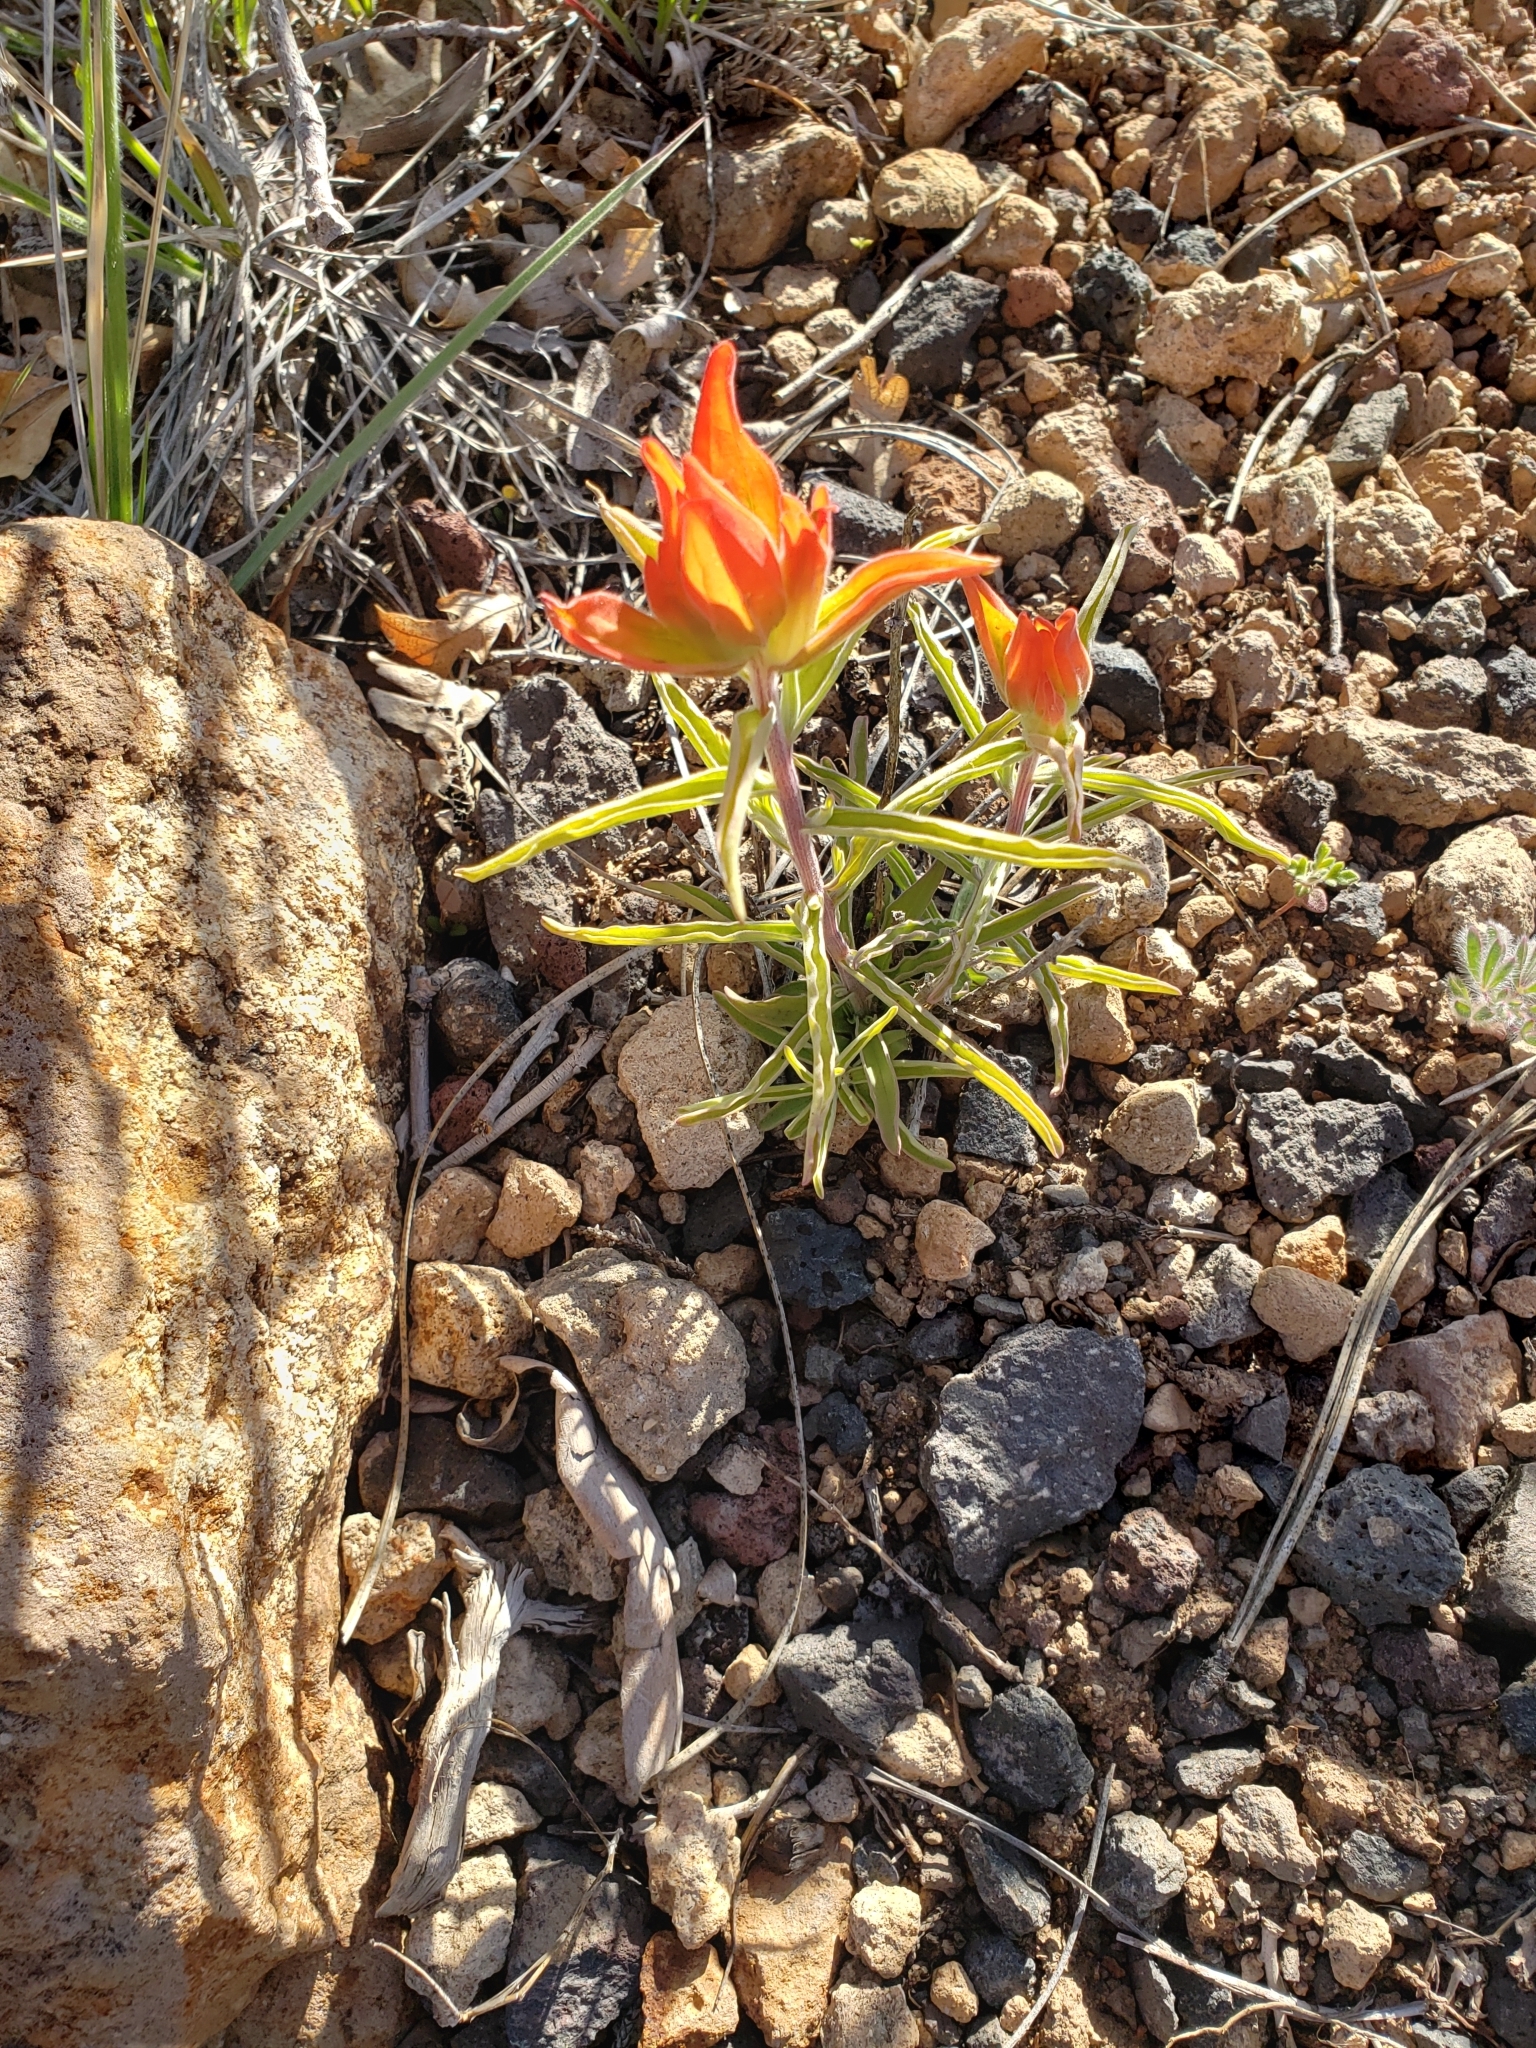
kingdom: Plantae
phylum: Tracheophyta
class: Magnoliopsida
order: Lamiales
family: Orobanchaceae
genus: Castilleja
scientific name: Castilleja integra
